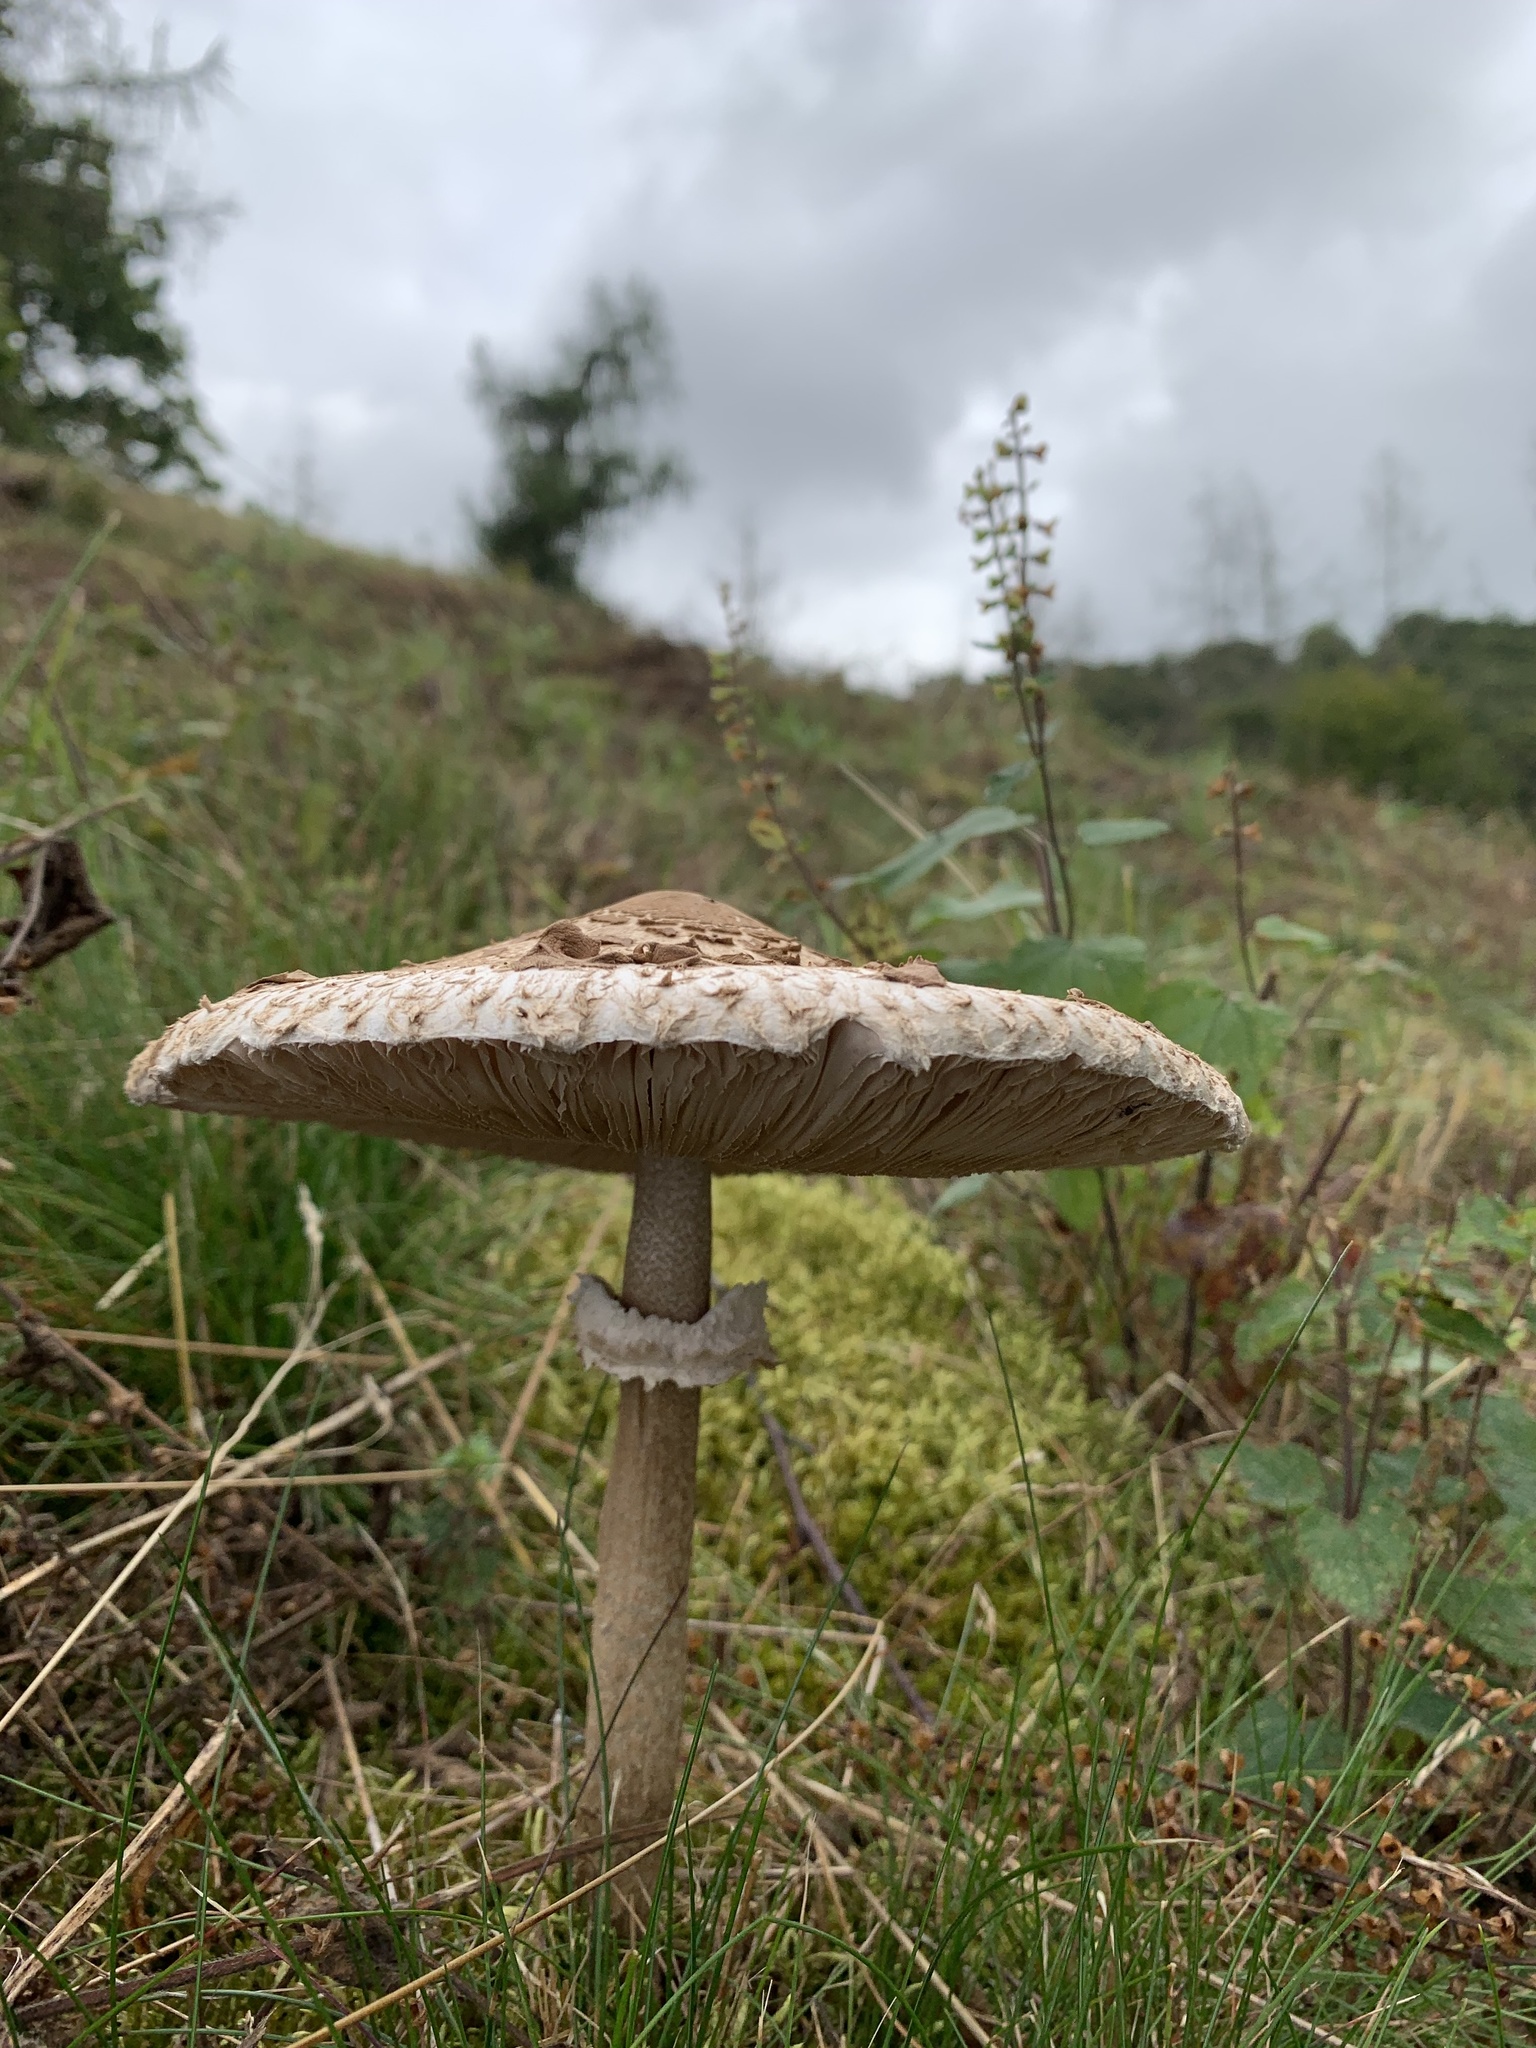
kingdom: Fungi
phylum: Basidiomycota
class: Agaricomycetes
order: Agaricales
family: Agaricaceae
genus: Macrolepiota
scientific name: Macrolepiota procera
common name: Parasol
